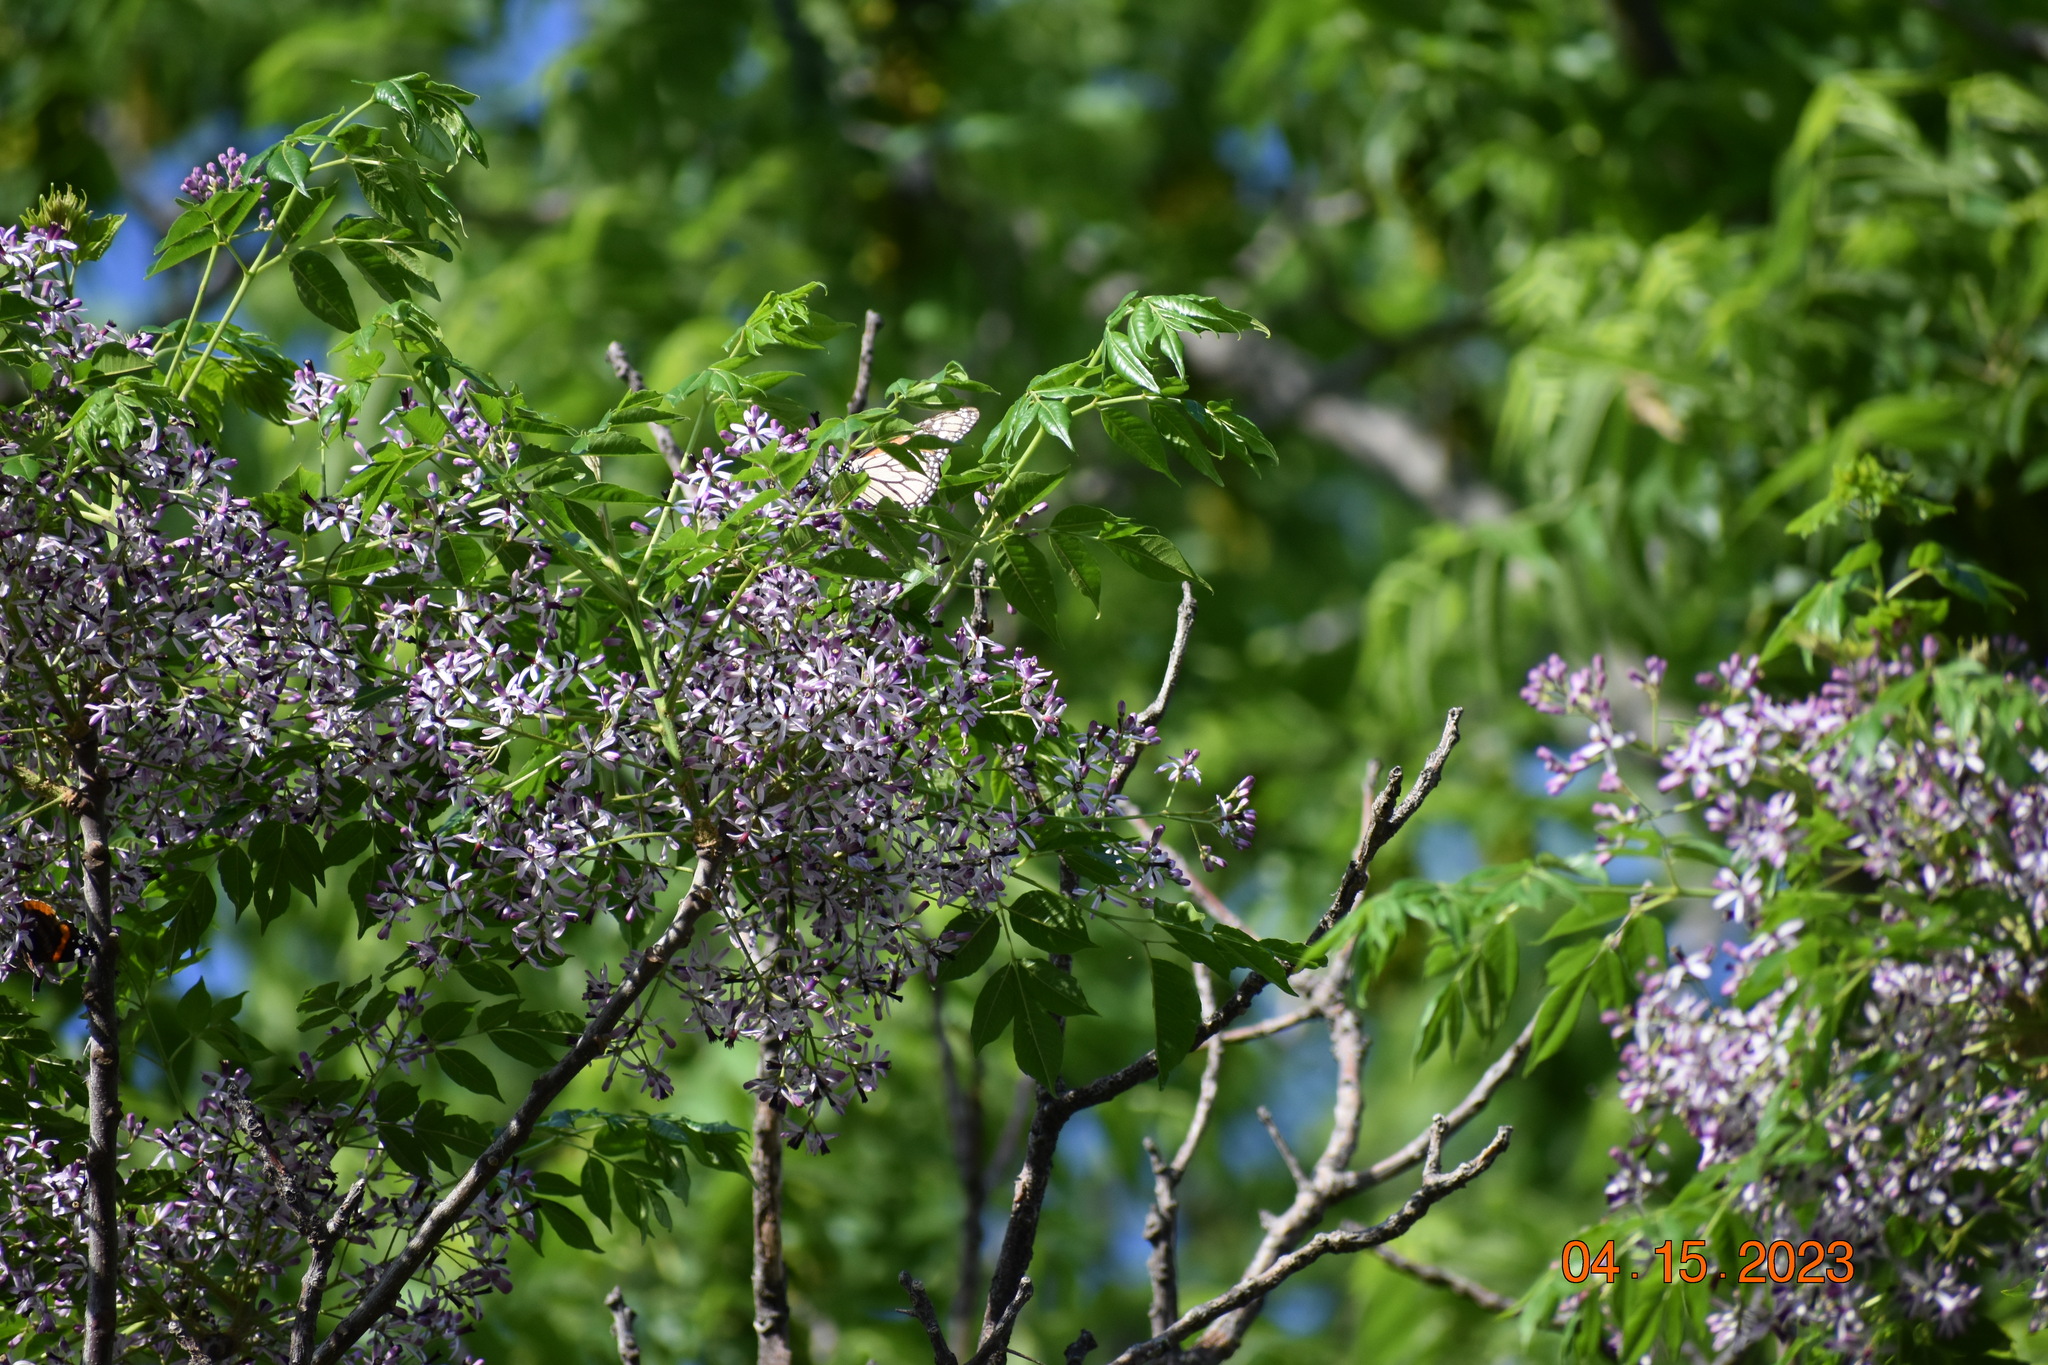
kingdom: Plantae
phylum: Tracheophyta
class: Magnoliopsida
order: Sapindales
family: Meliaceae
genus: Melia
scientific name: Melia azedarach
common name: Chinaberrytree
